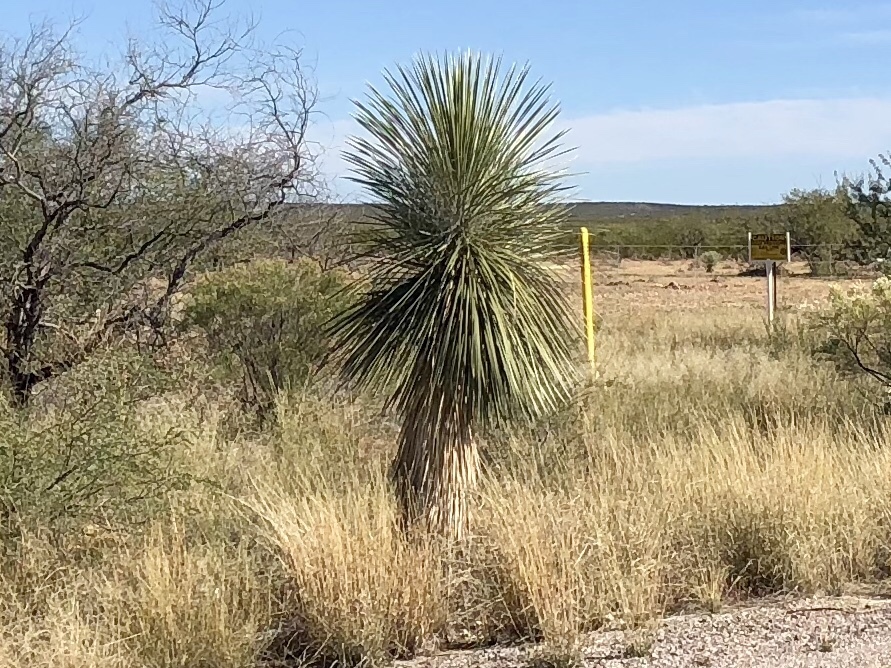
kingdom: Plantae
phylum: Tracheophyta
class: Liliopsida
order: Asparagales
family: Asparagaceae
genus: Yucca
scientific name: Yucca elata
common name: Palmella
